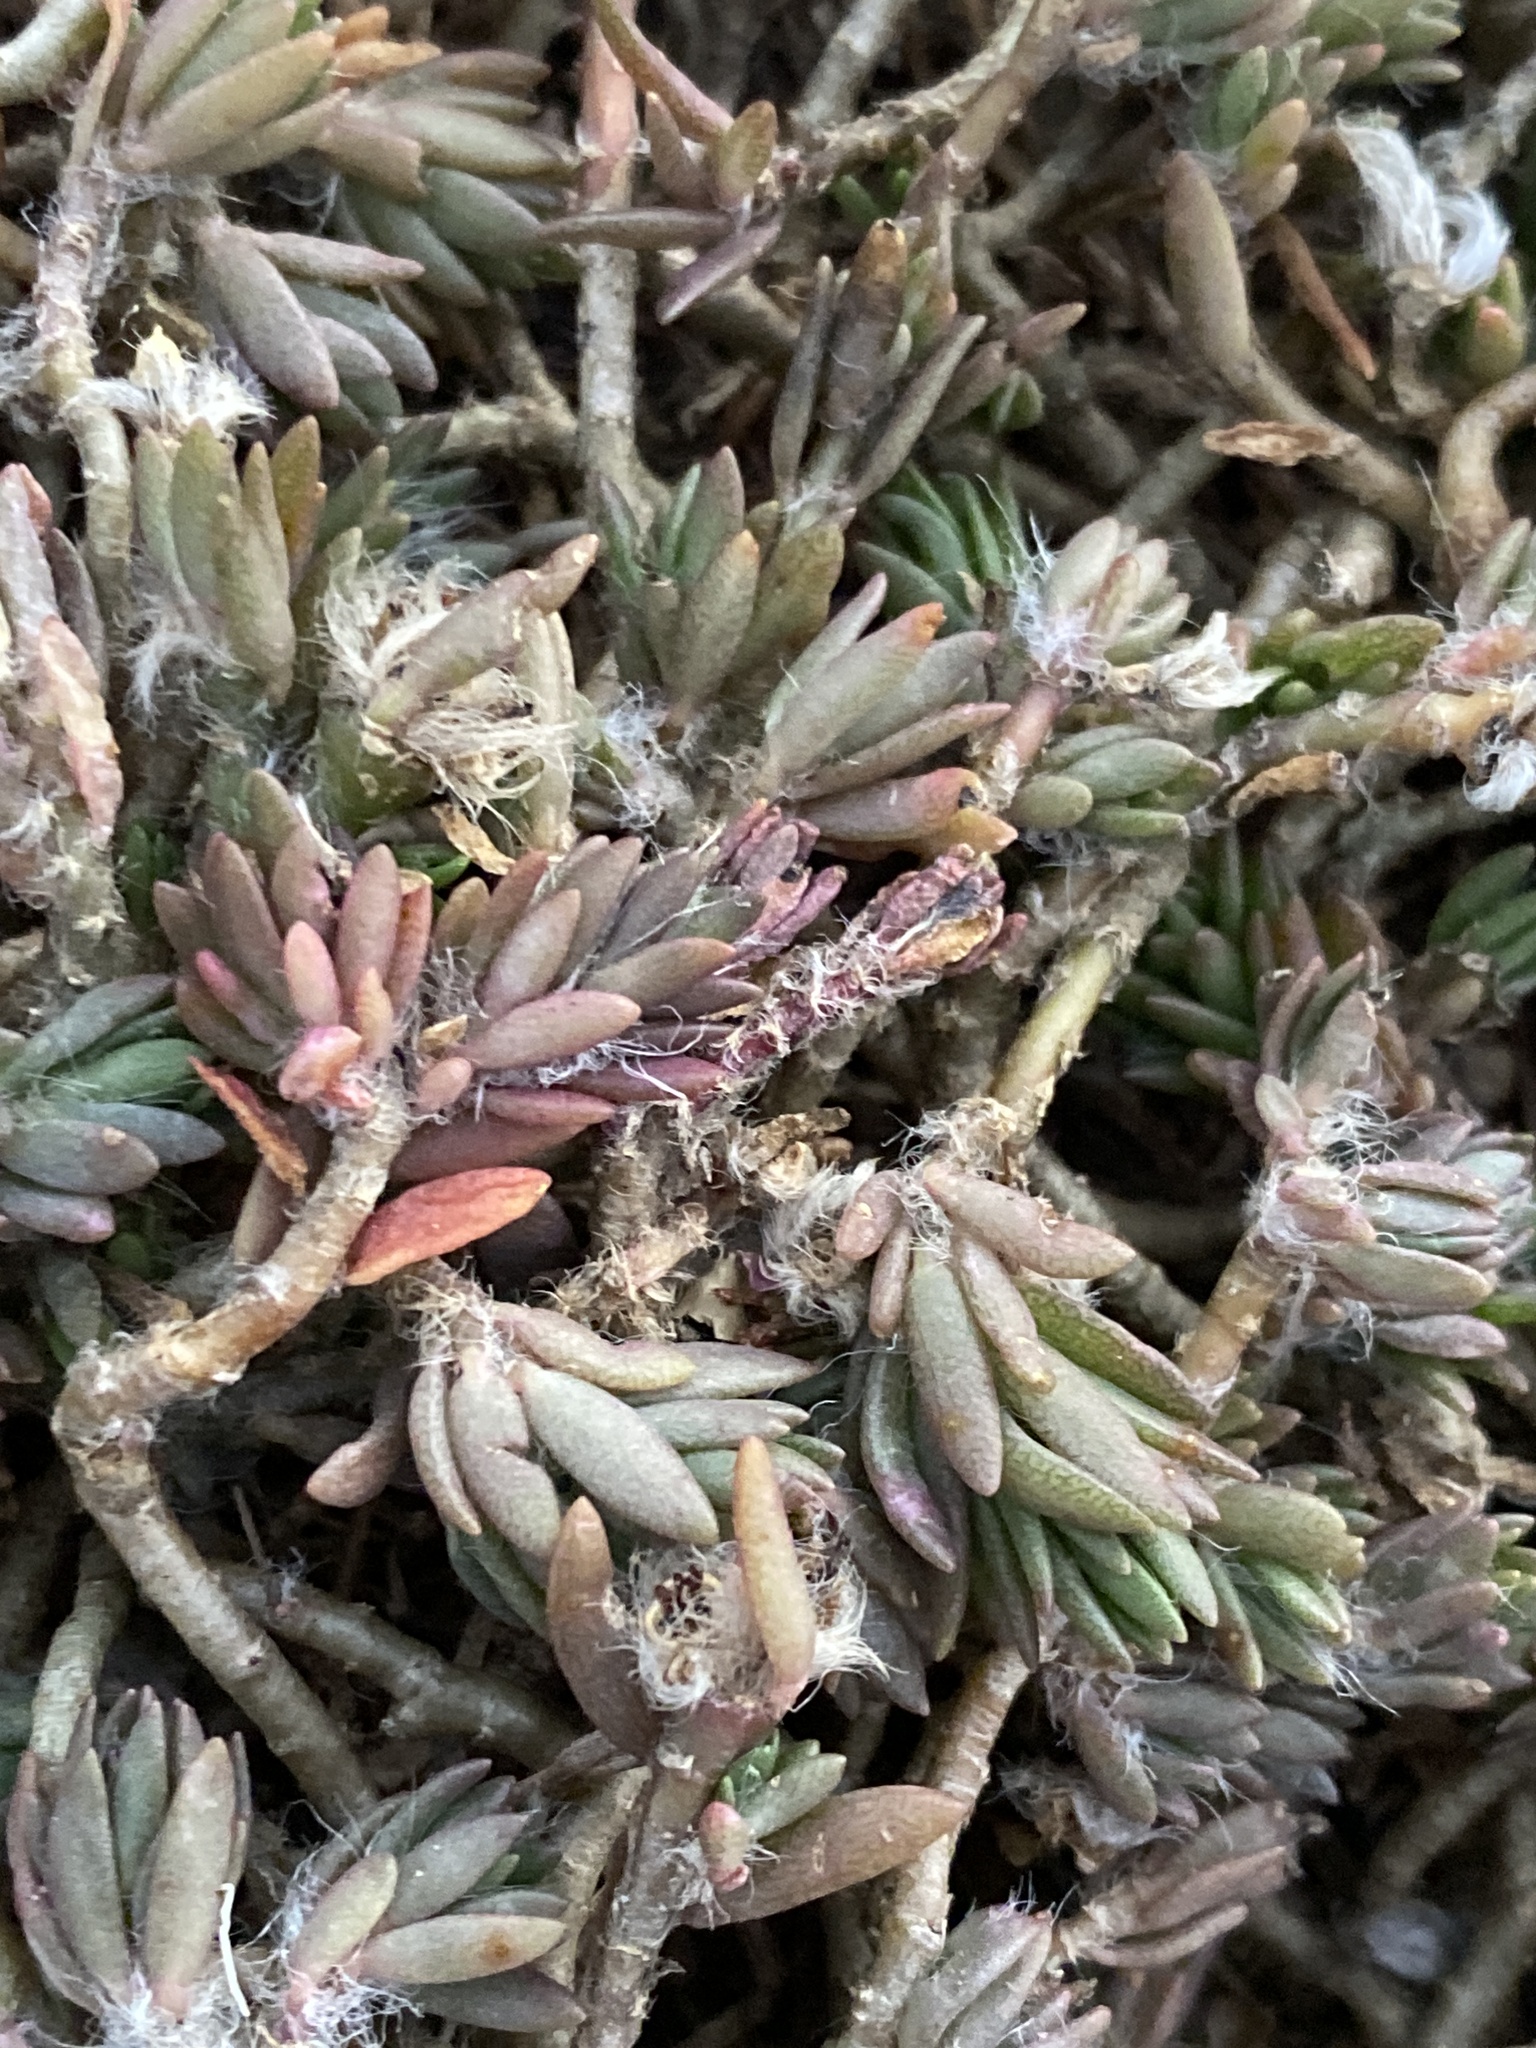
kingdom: Plantae
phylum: Tracheophyta
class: Magnoliopsida
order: Caryophyllales
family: Portulacaceae
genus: Portulaca
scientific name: Portulaca pilosa
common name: Kiss me quick
